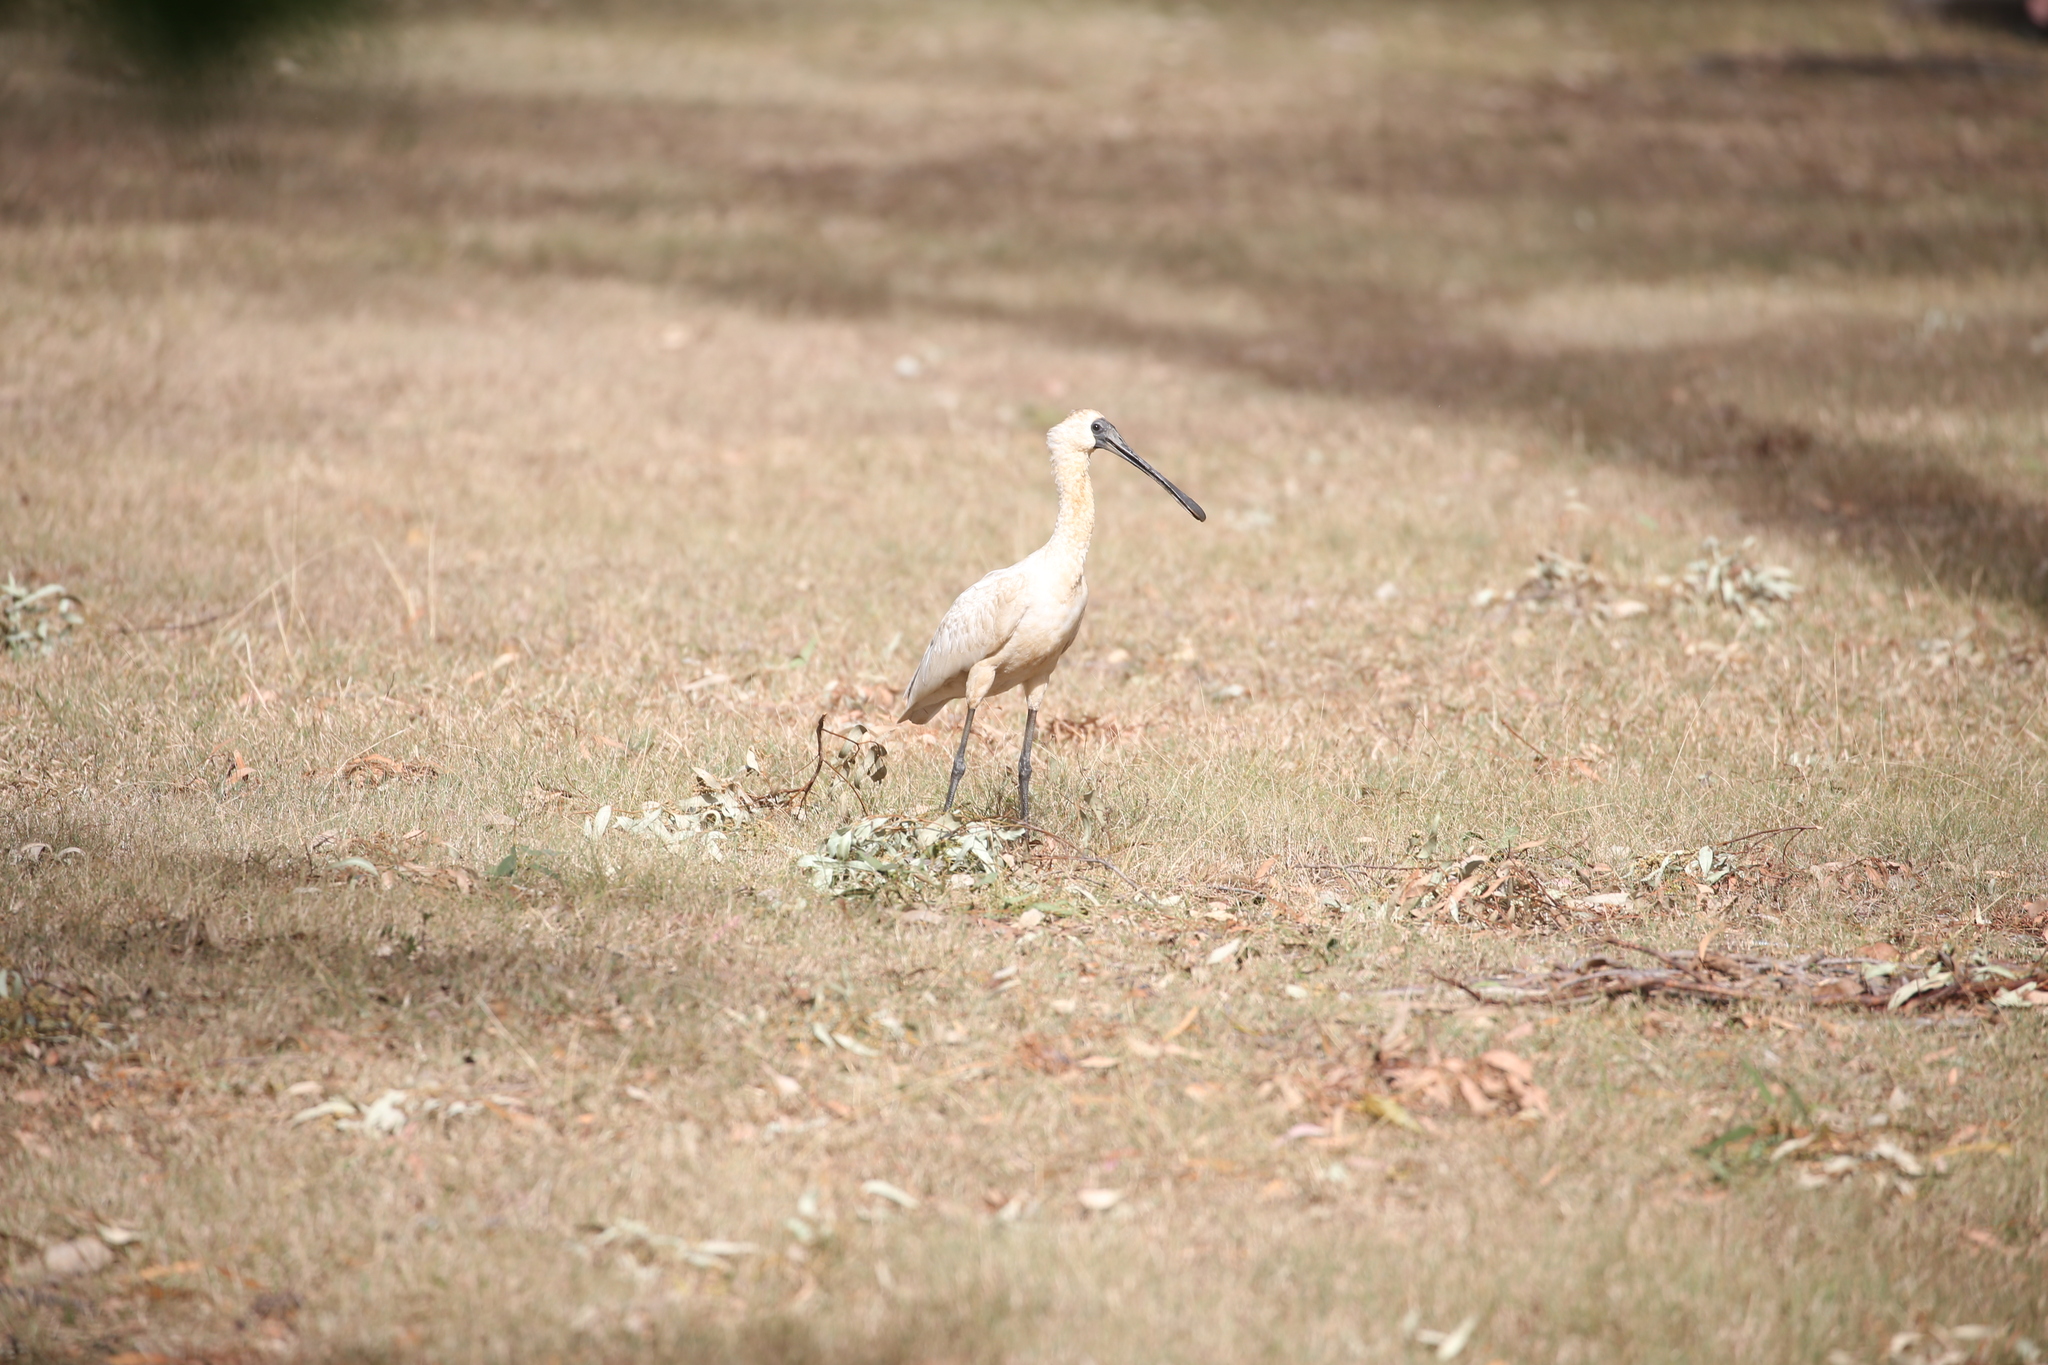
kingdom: Animalia
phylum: Chordata
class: Aves
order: Pelecaniformes
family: Threskiornithidae
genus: Platalea
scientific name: Platalea regia
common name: Royal spoonbill
